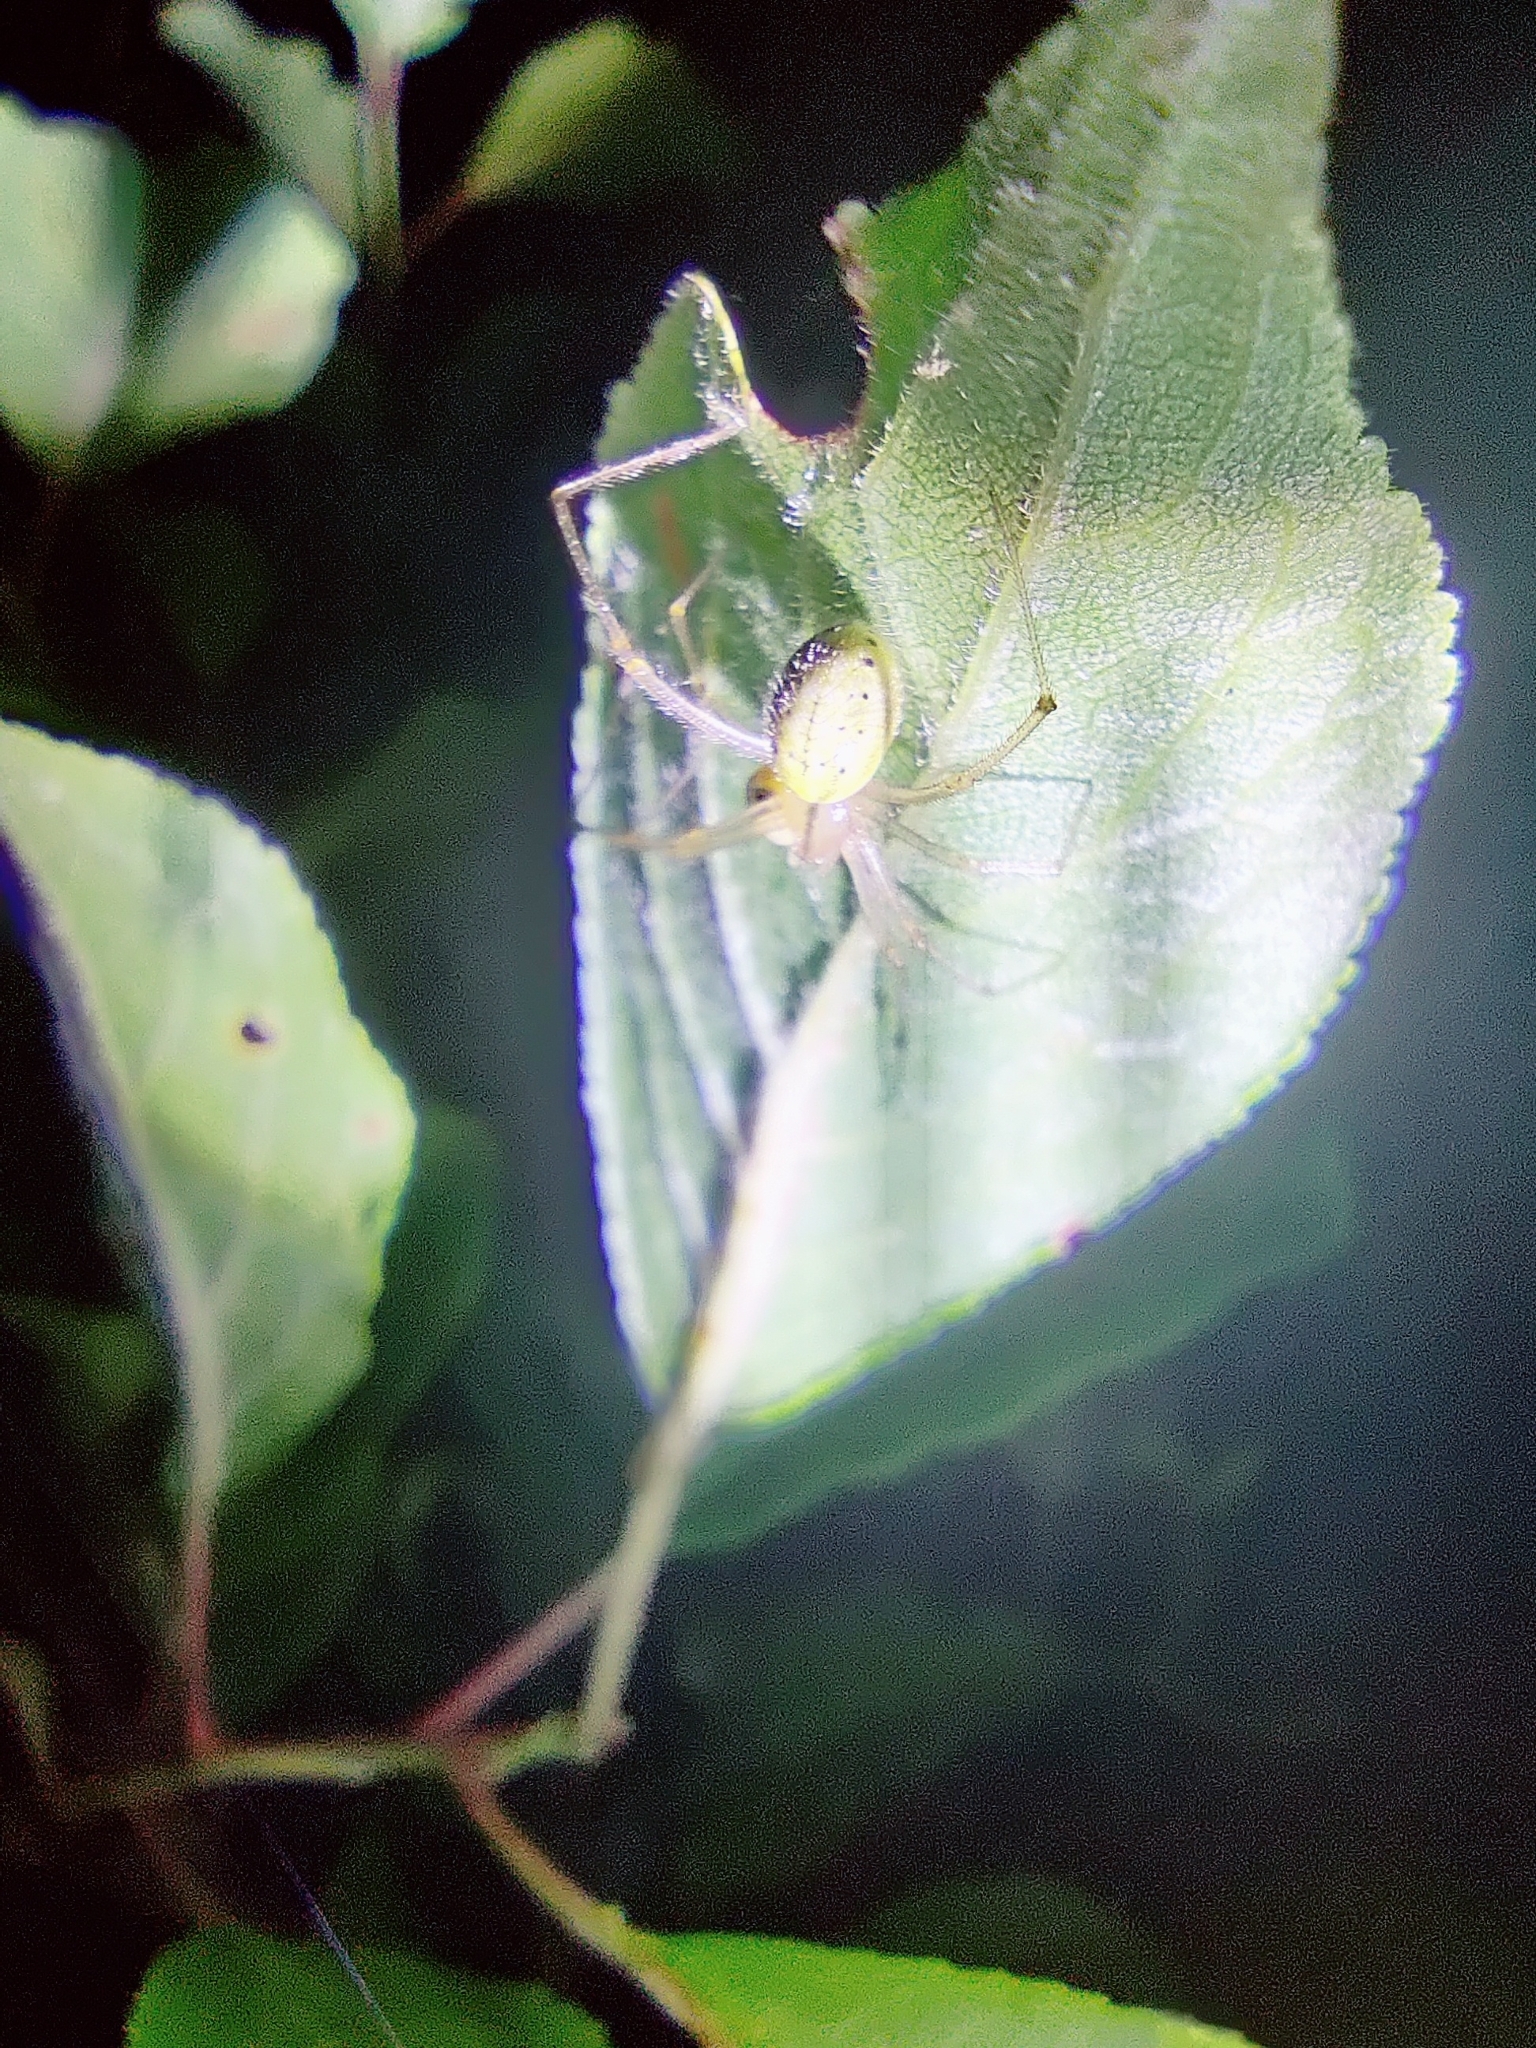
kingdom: Animalia
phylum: Arthropoda
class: Arachnida
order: Araneae
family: Theridiidae
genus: Enoplognatha
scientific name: Enoplognatha ovata
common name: Common candy-striped spider
